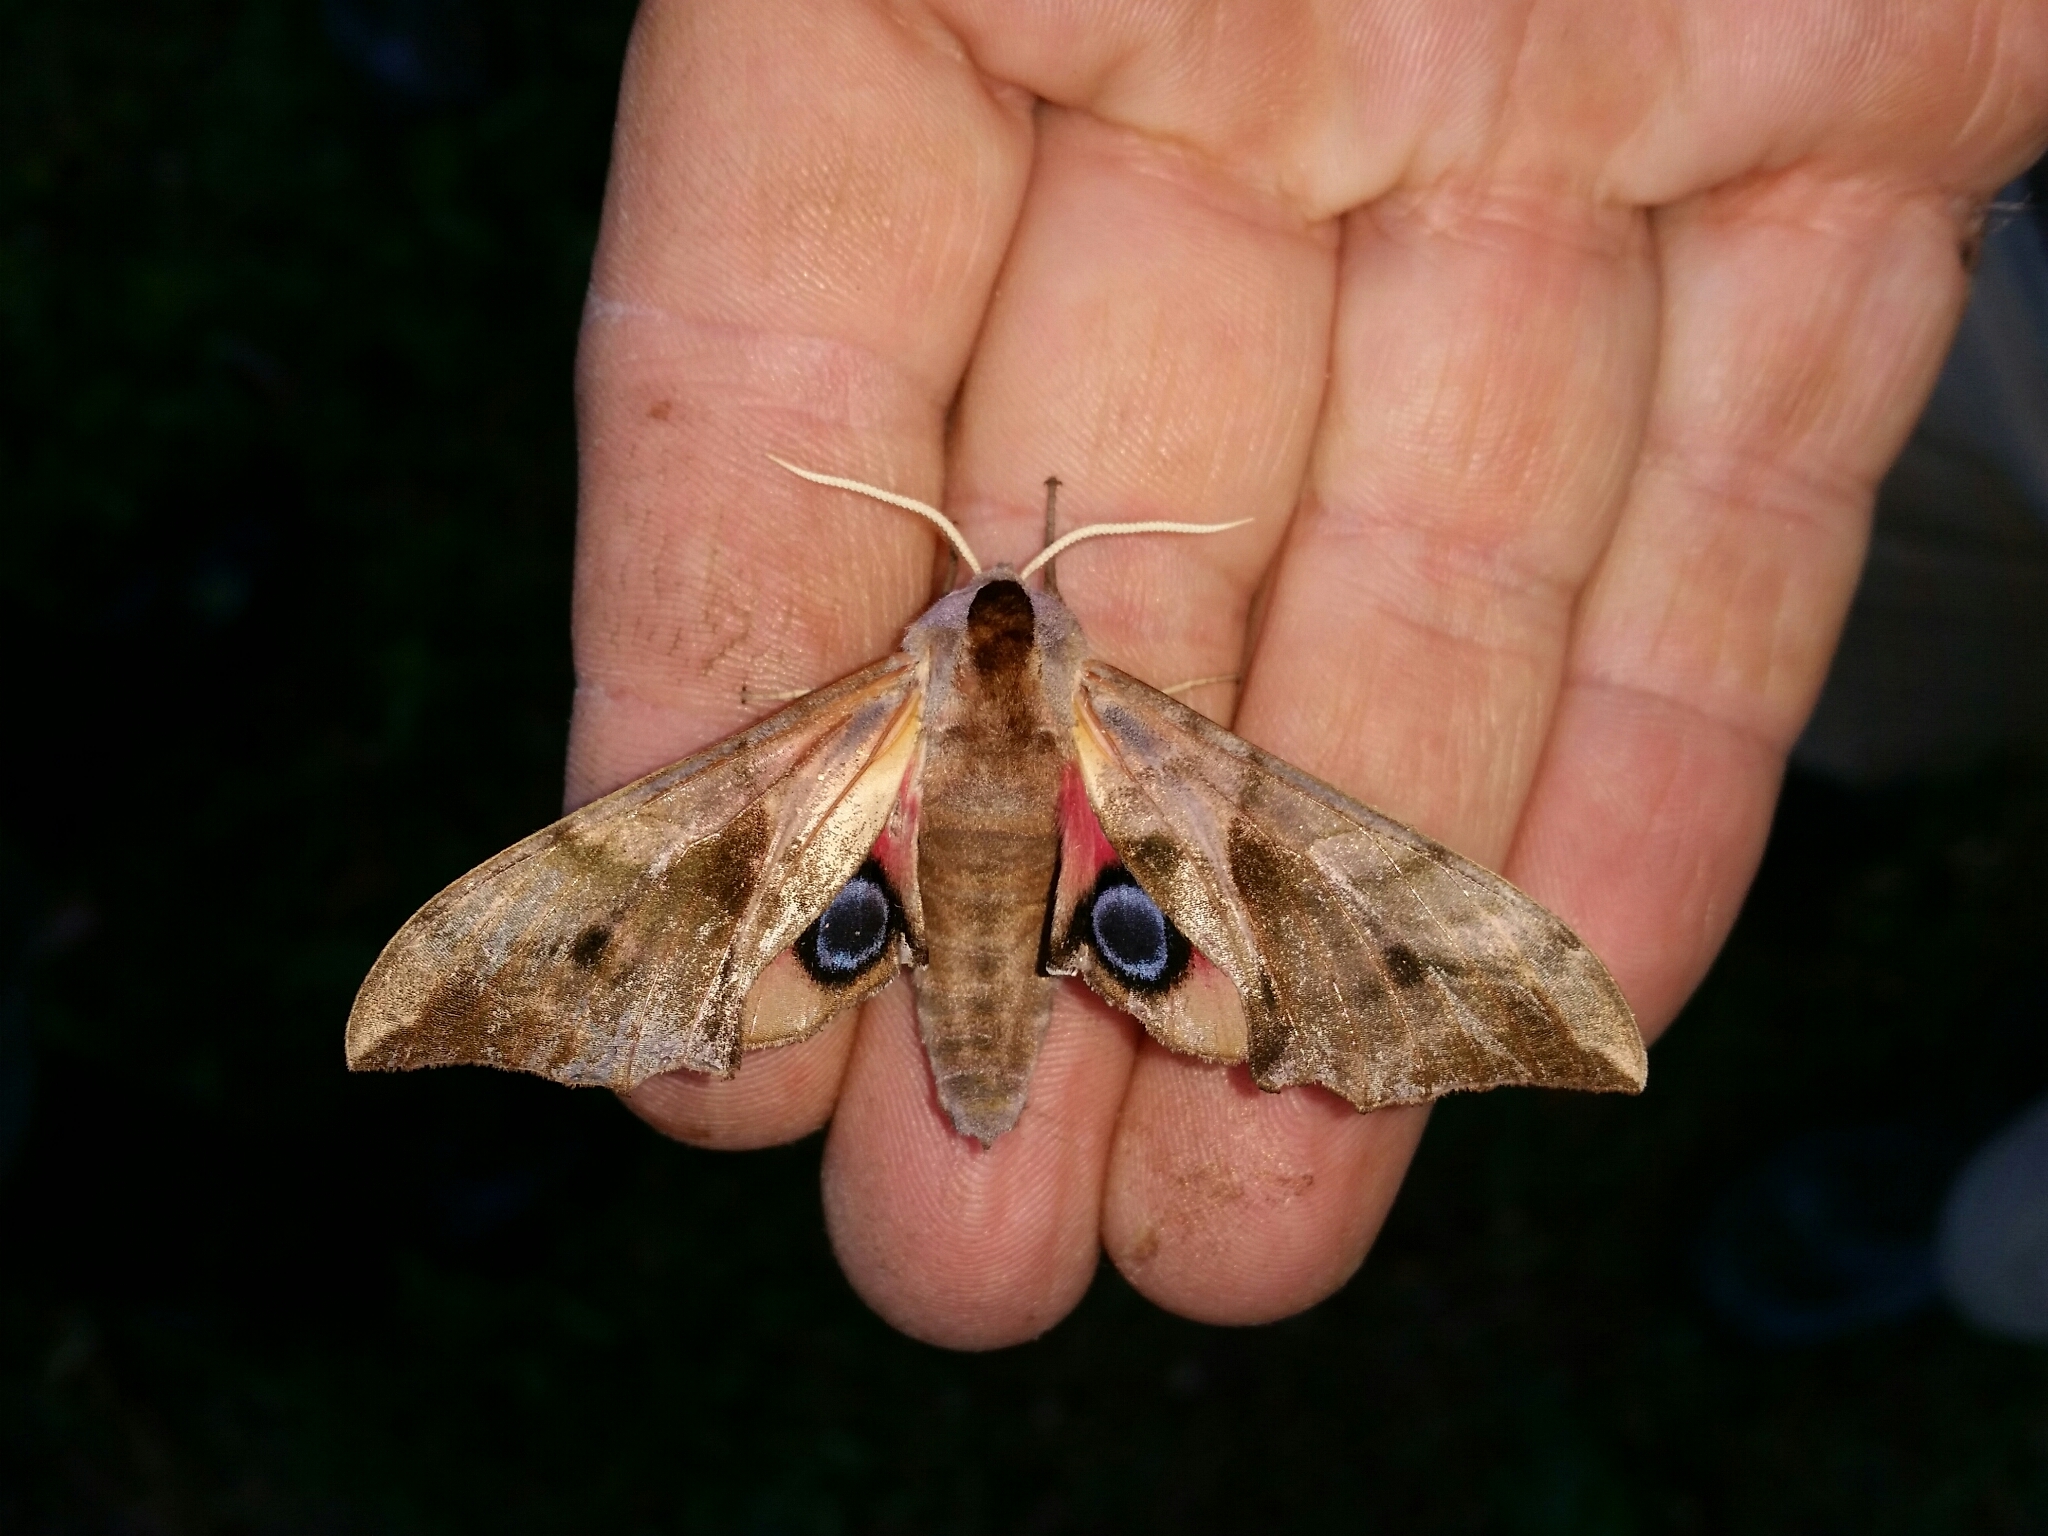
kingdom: Animalia
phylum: Arthropoda
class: Insecta
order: Lepidoptera
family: Sphingidae
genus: Smerinthus
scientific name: Smerinthus ocellata
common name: Eyed hawk-moth
